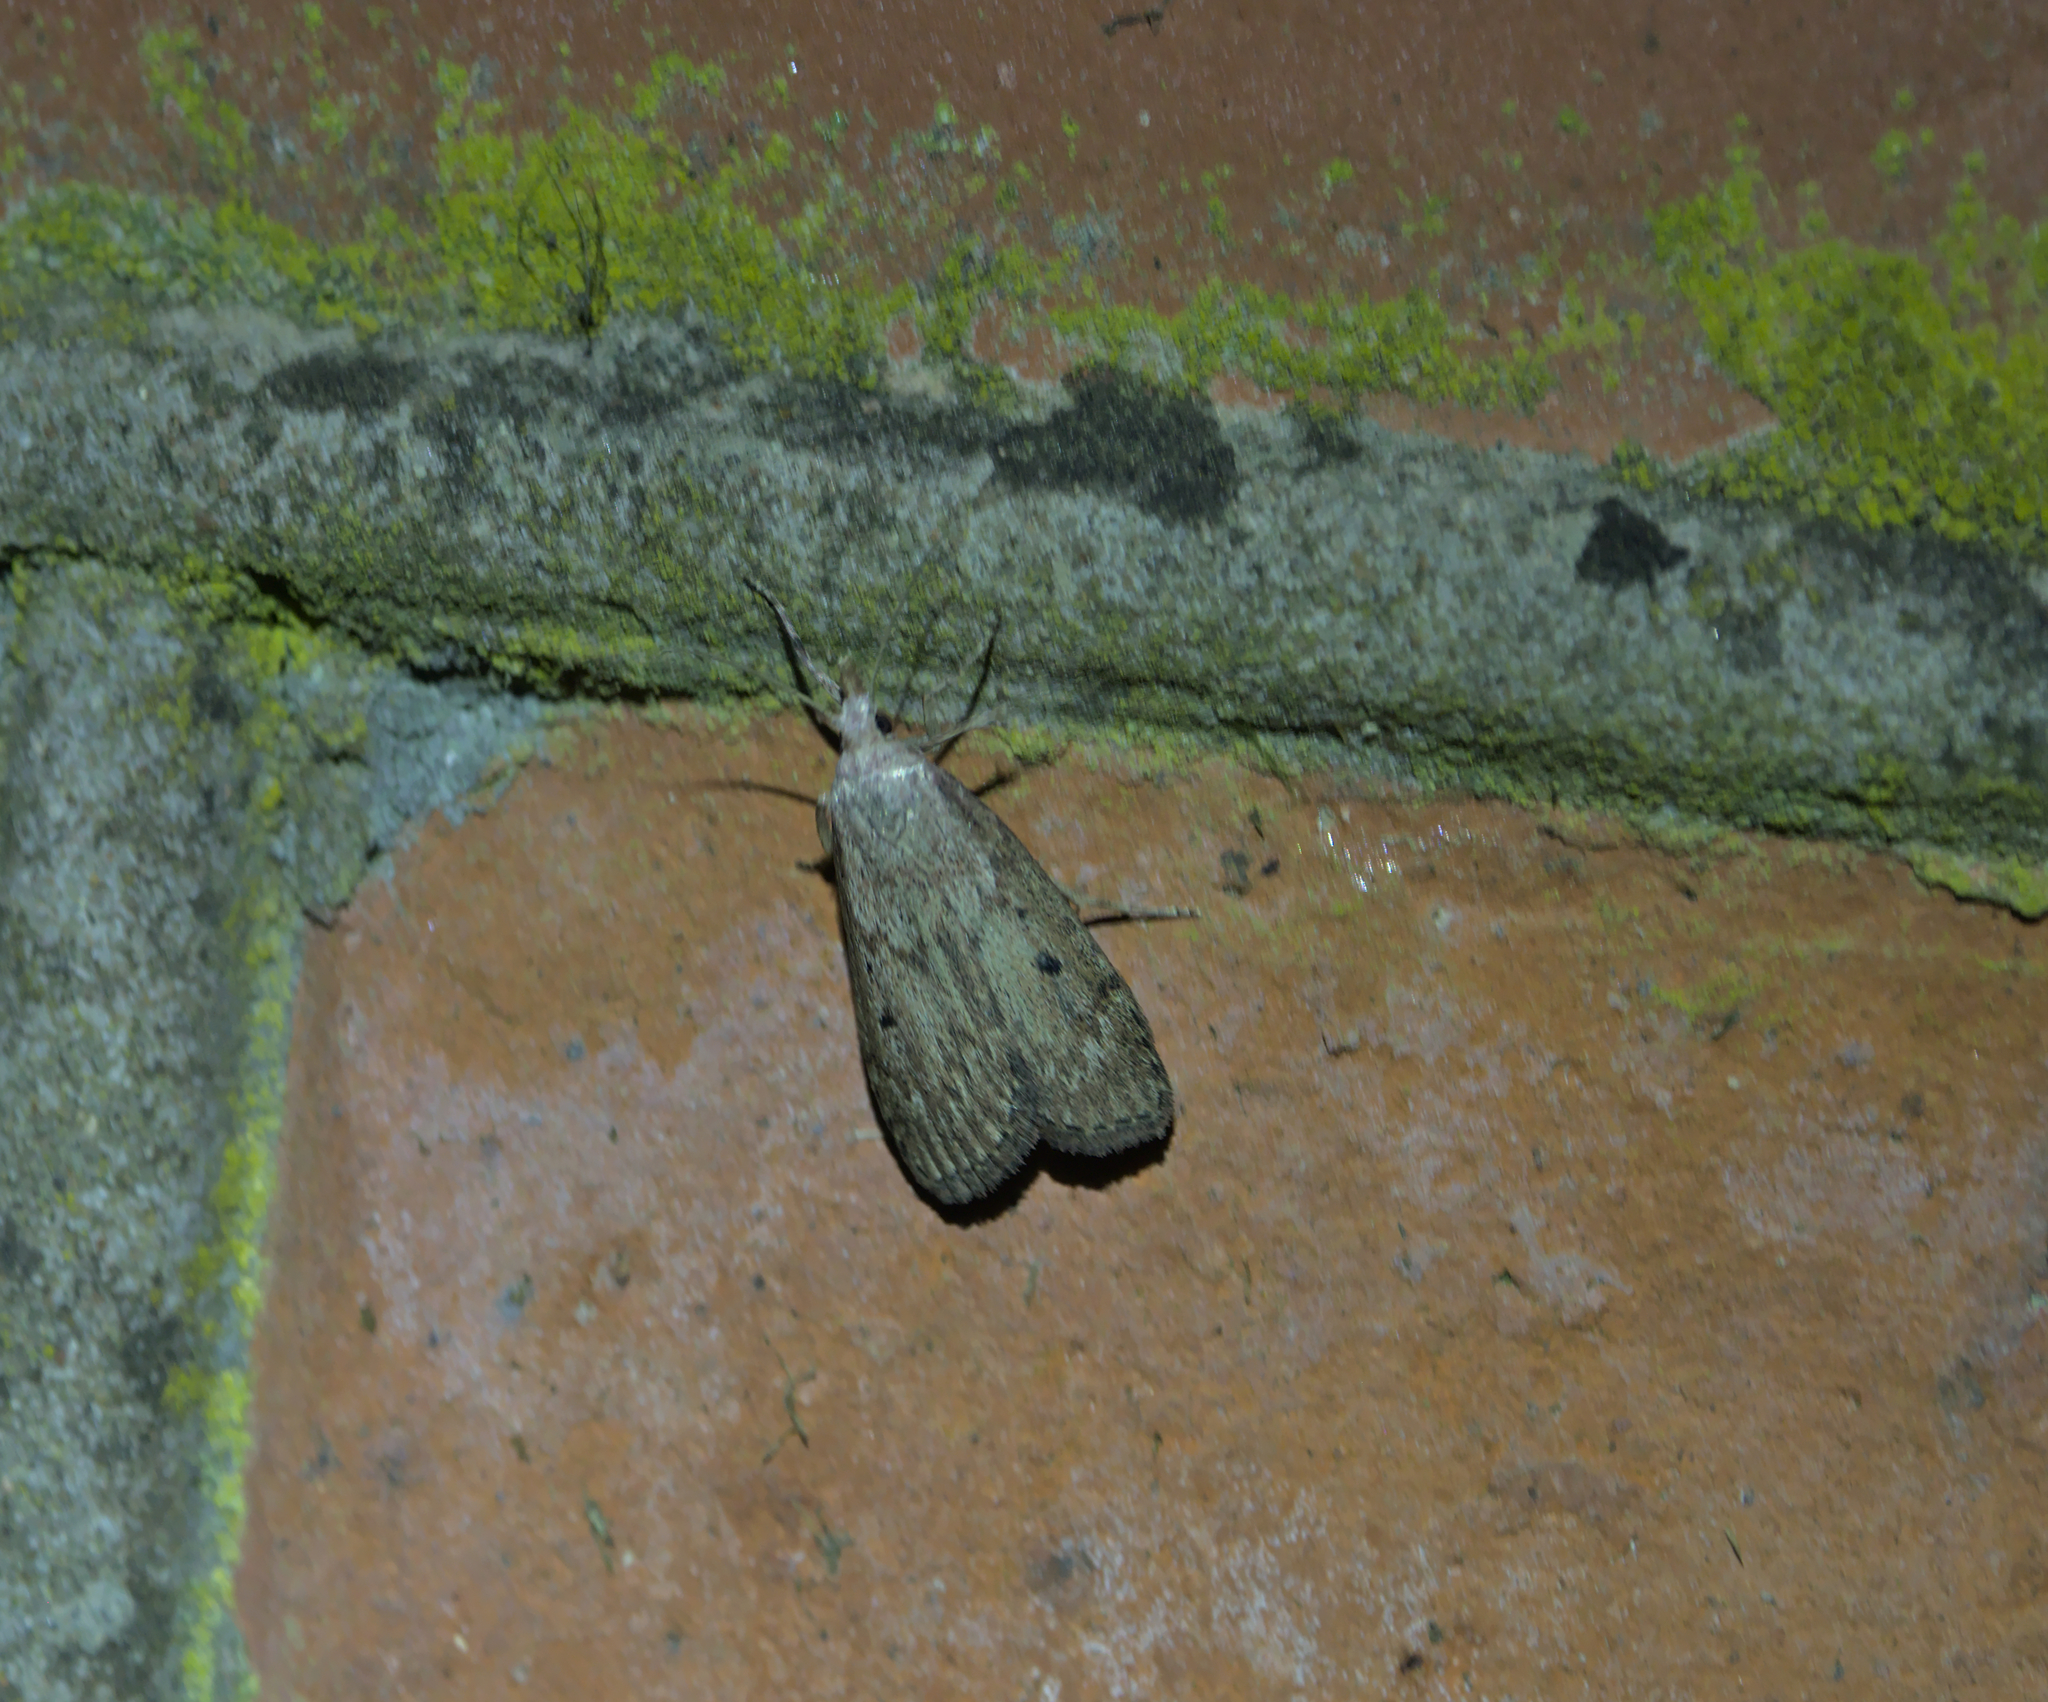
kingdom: Animalia
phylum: Arthropoda
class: Insecta
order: Lepidoptera
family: Pyralidae
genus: Aphomia
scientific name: Aphomia sociella
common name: Bee moth
